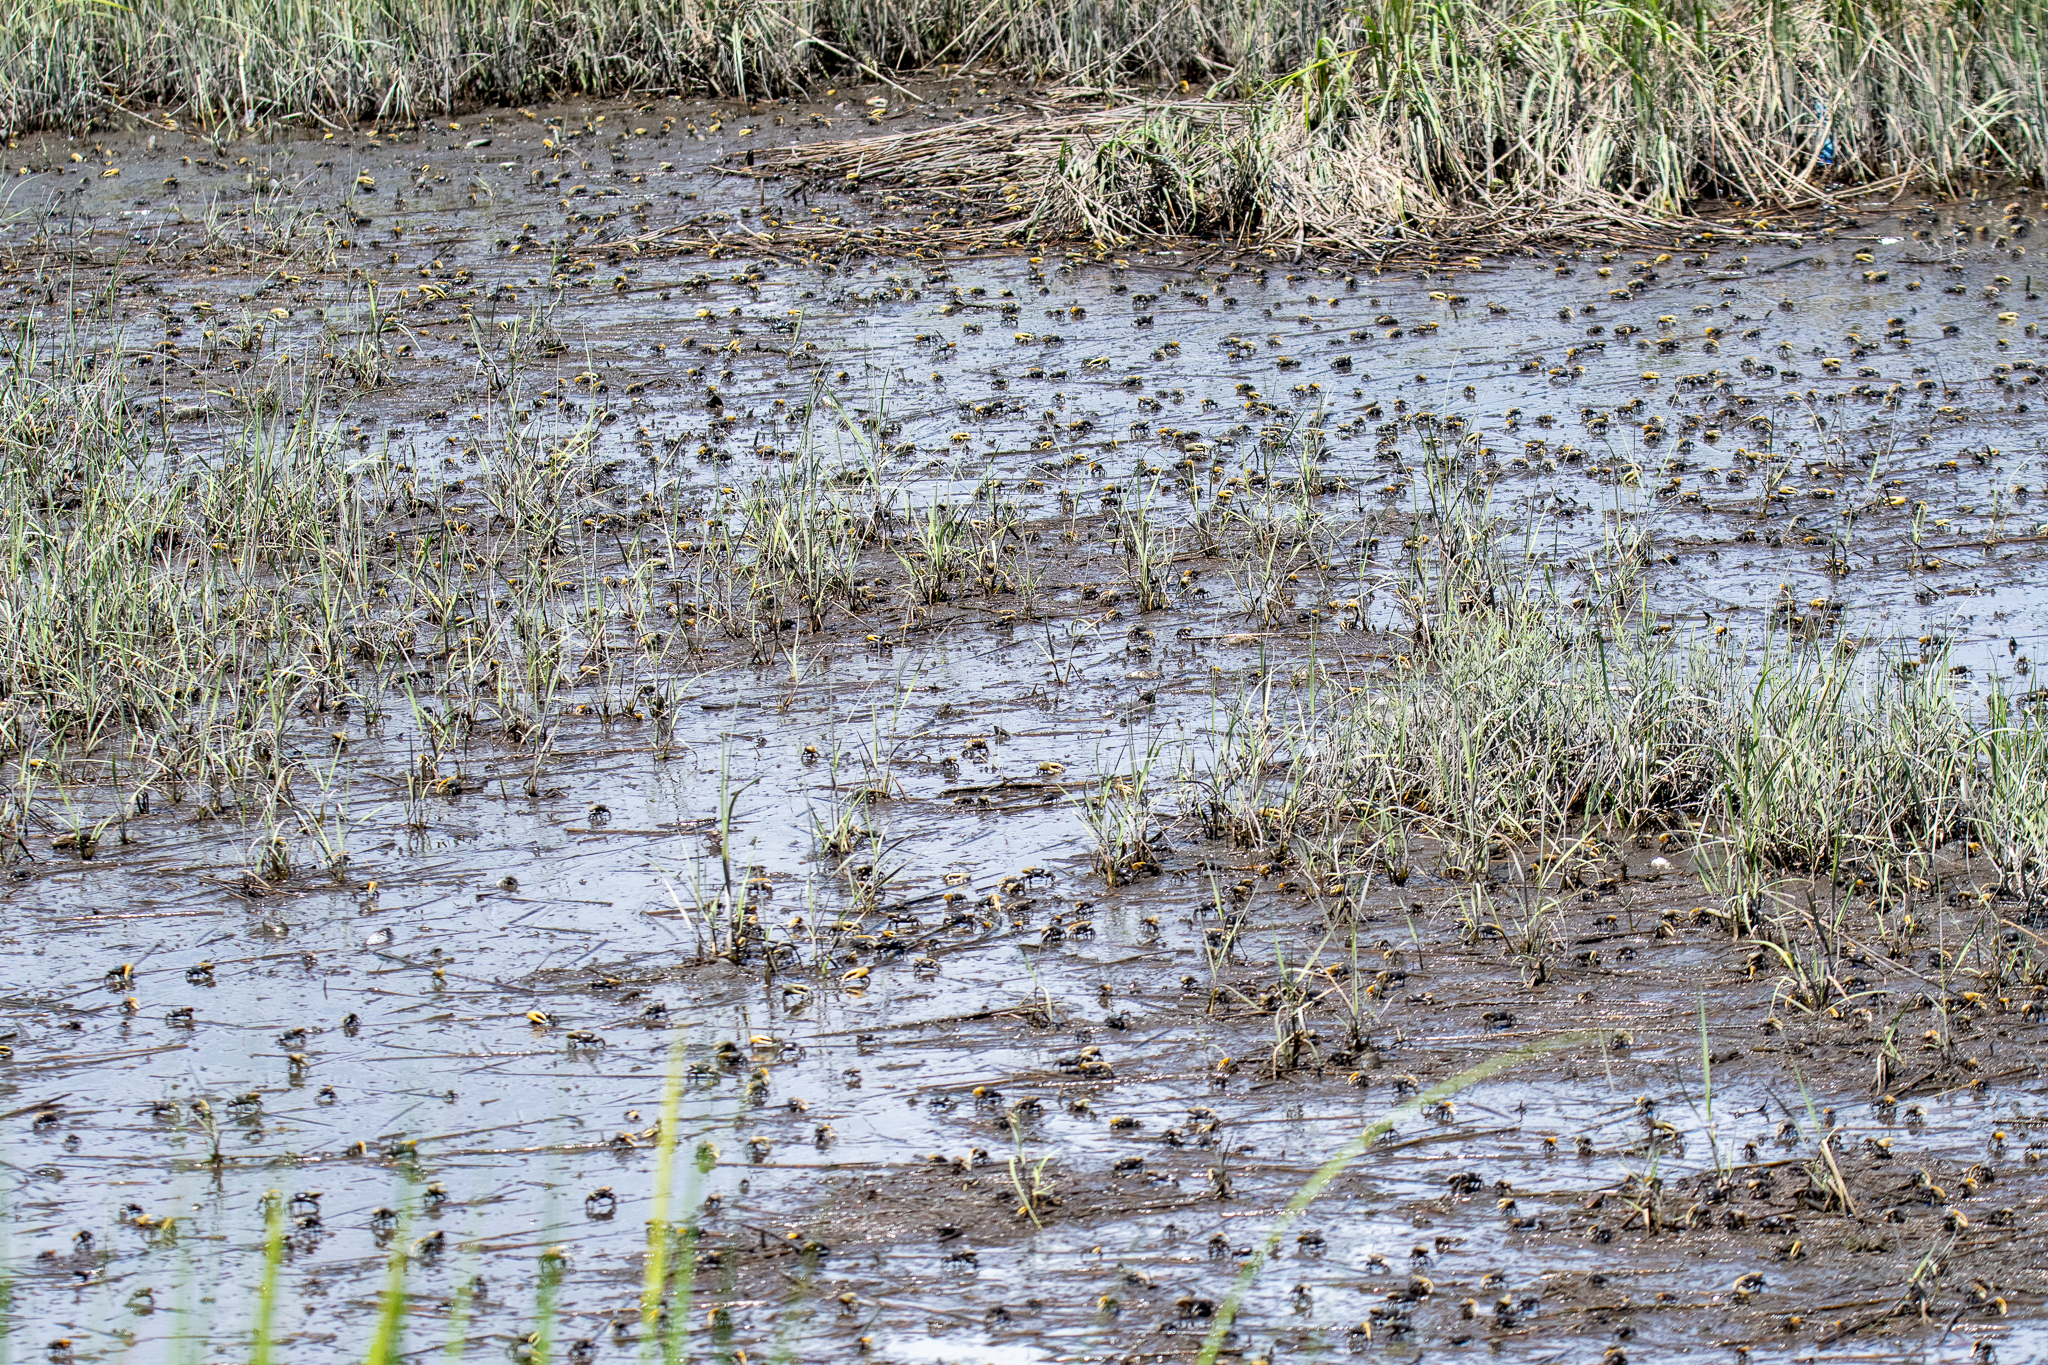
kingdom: Animalia
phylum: Arthropoda
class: Malacostraca
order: Decapoda
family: Ocypodidae
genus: Minuca
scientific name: Minuca pugnax
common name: Mud fiddler crab
